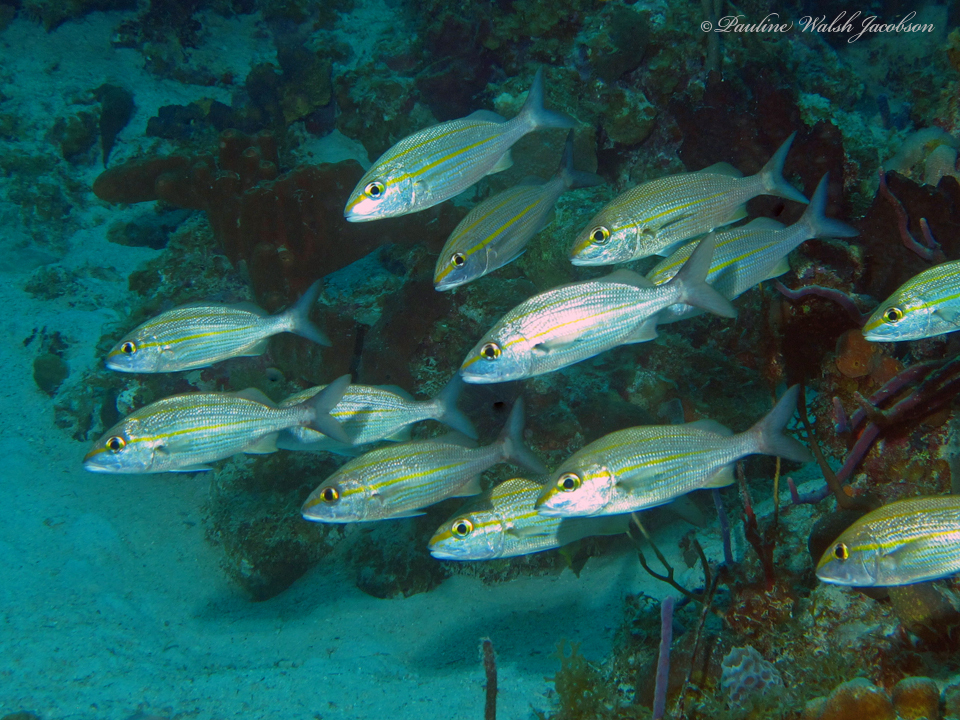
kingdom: Animalia
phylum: Chordata
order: Perciformes
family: Haemulidae
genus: Haemulon
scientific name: Haemulon aurolineatum
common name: Tomtate
